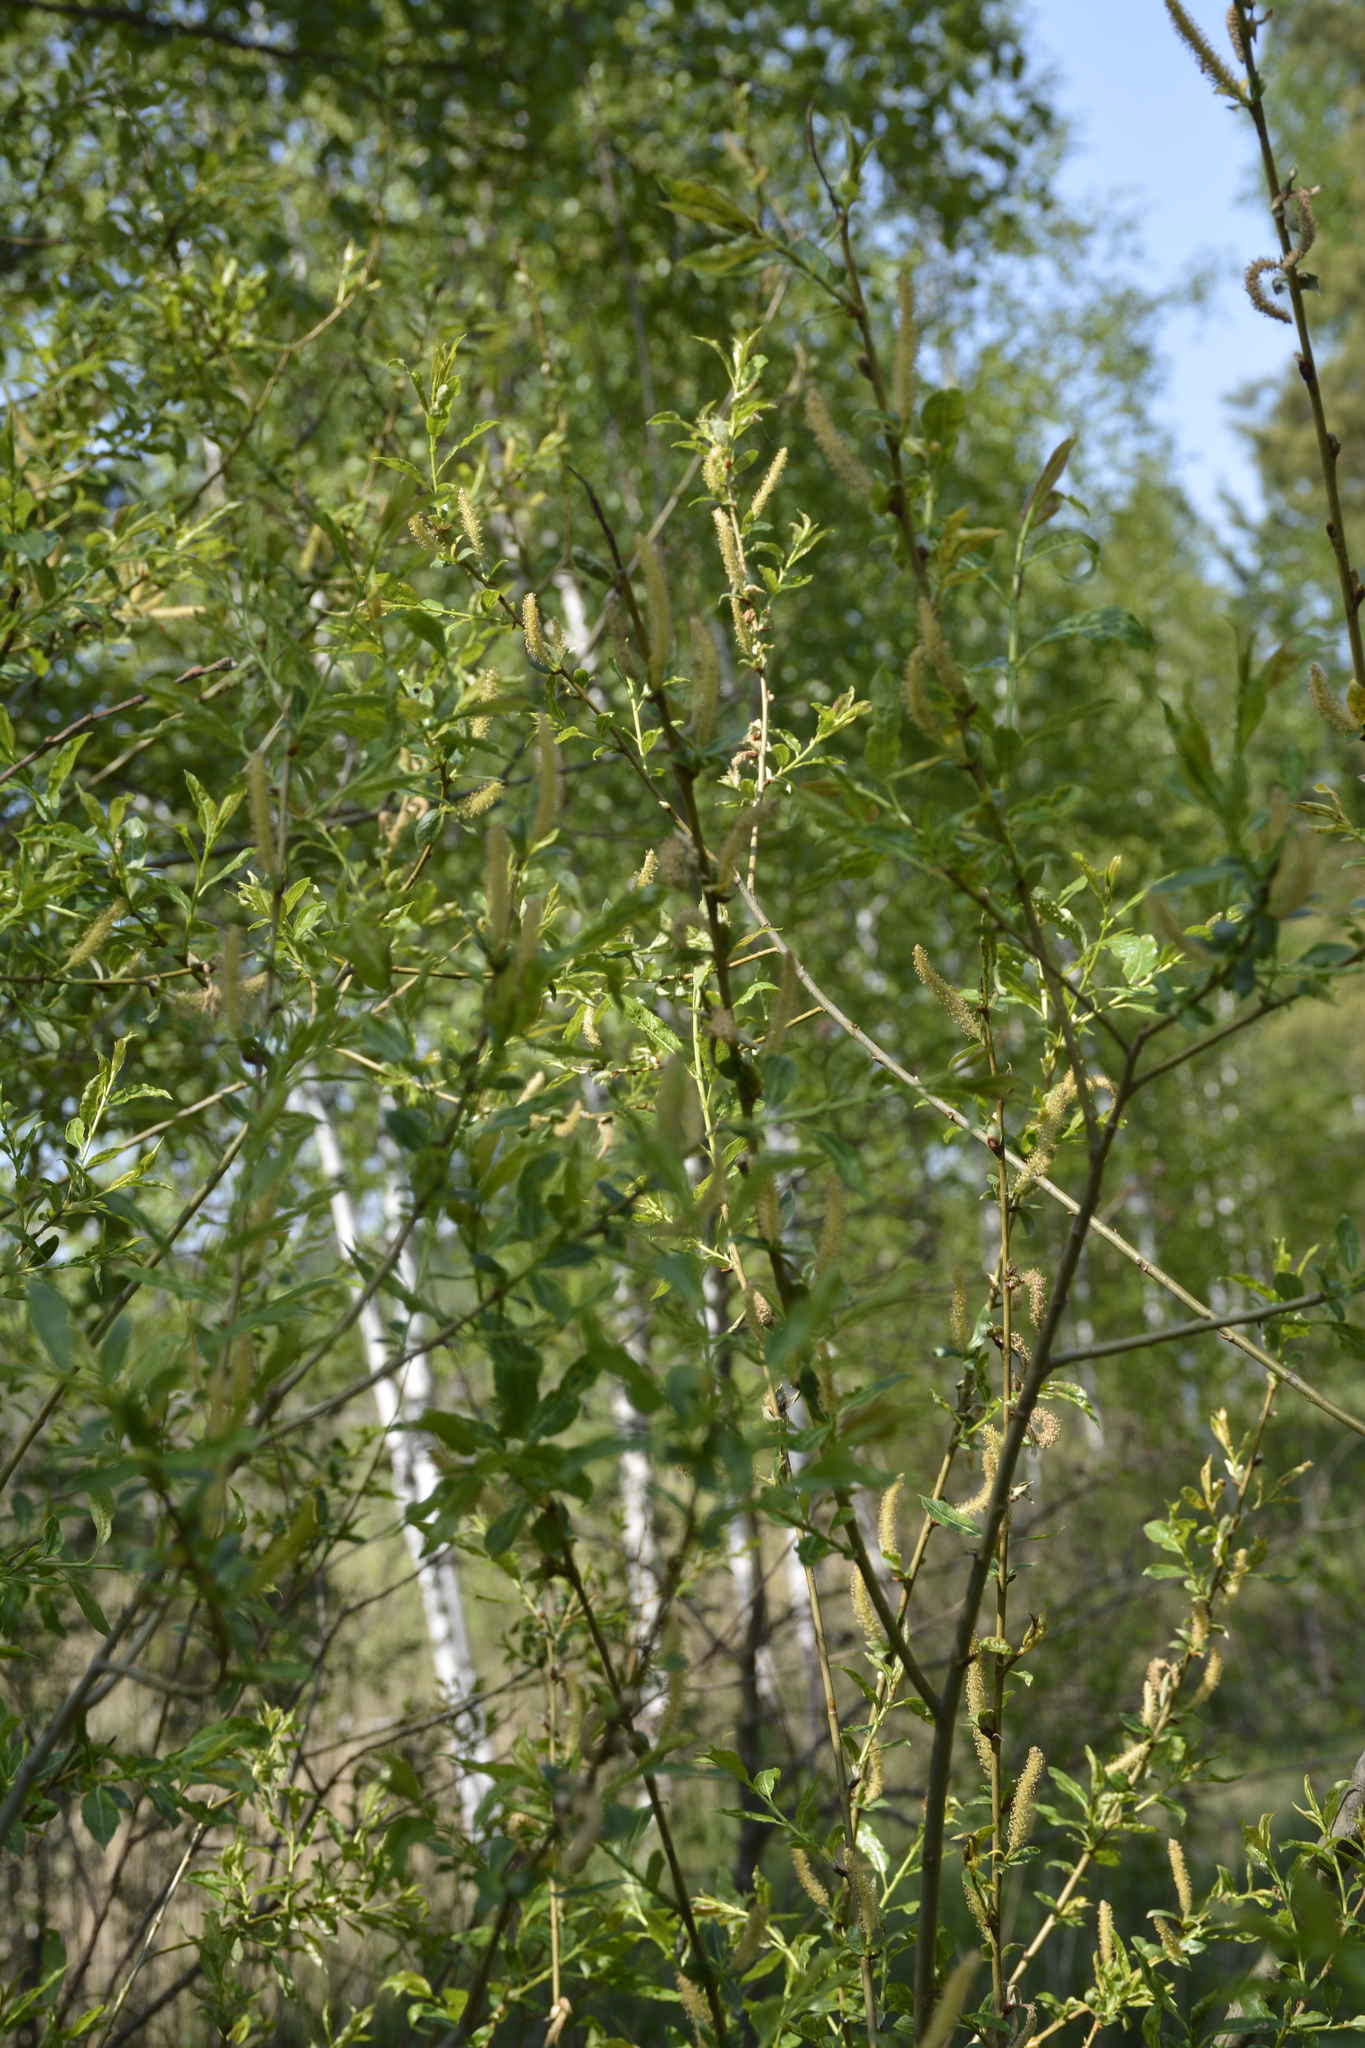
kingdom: Plantae
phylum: Tracheophyta
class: Magnoliopsida
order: Malpighiales
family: Salicaceae
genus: Salix
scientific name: Salix triandra
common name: Almond willow
